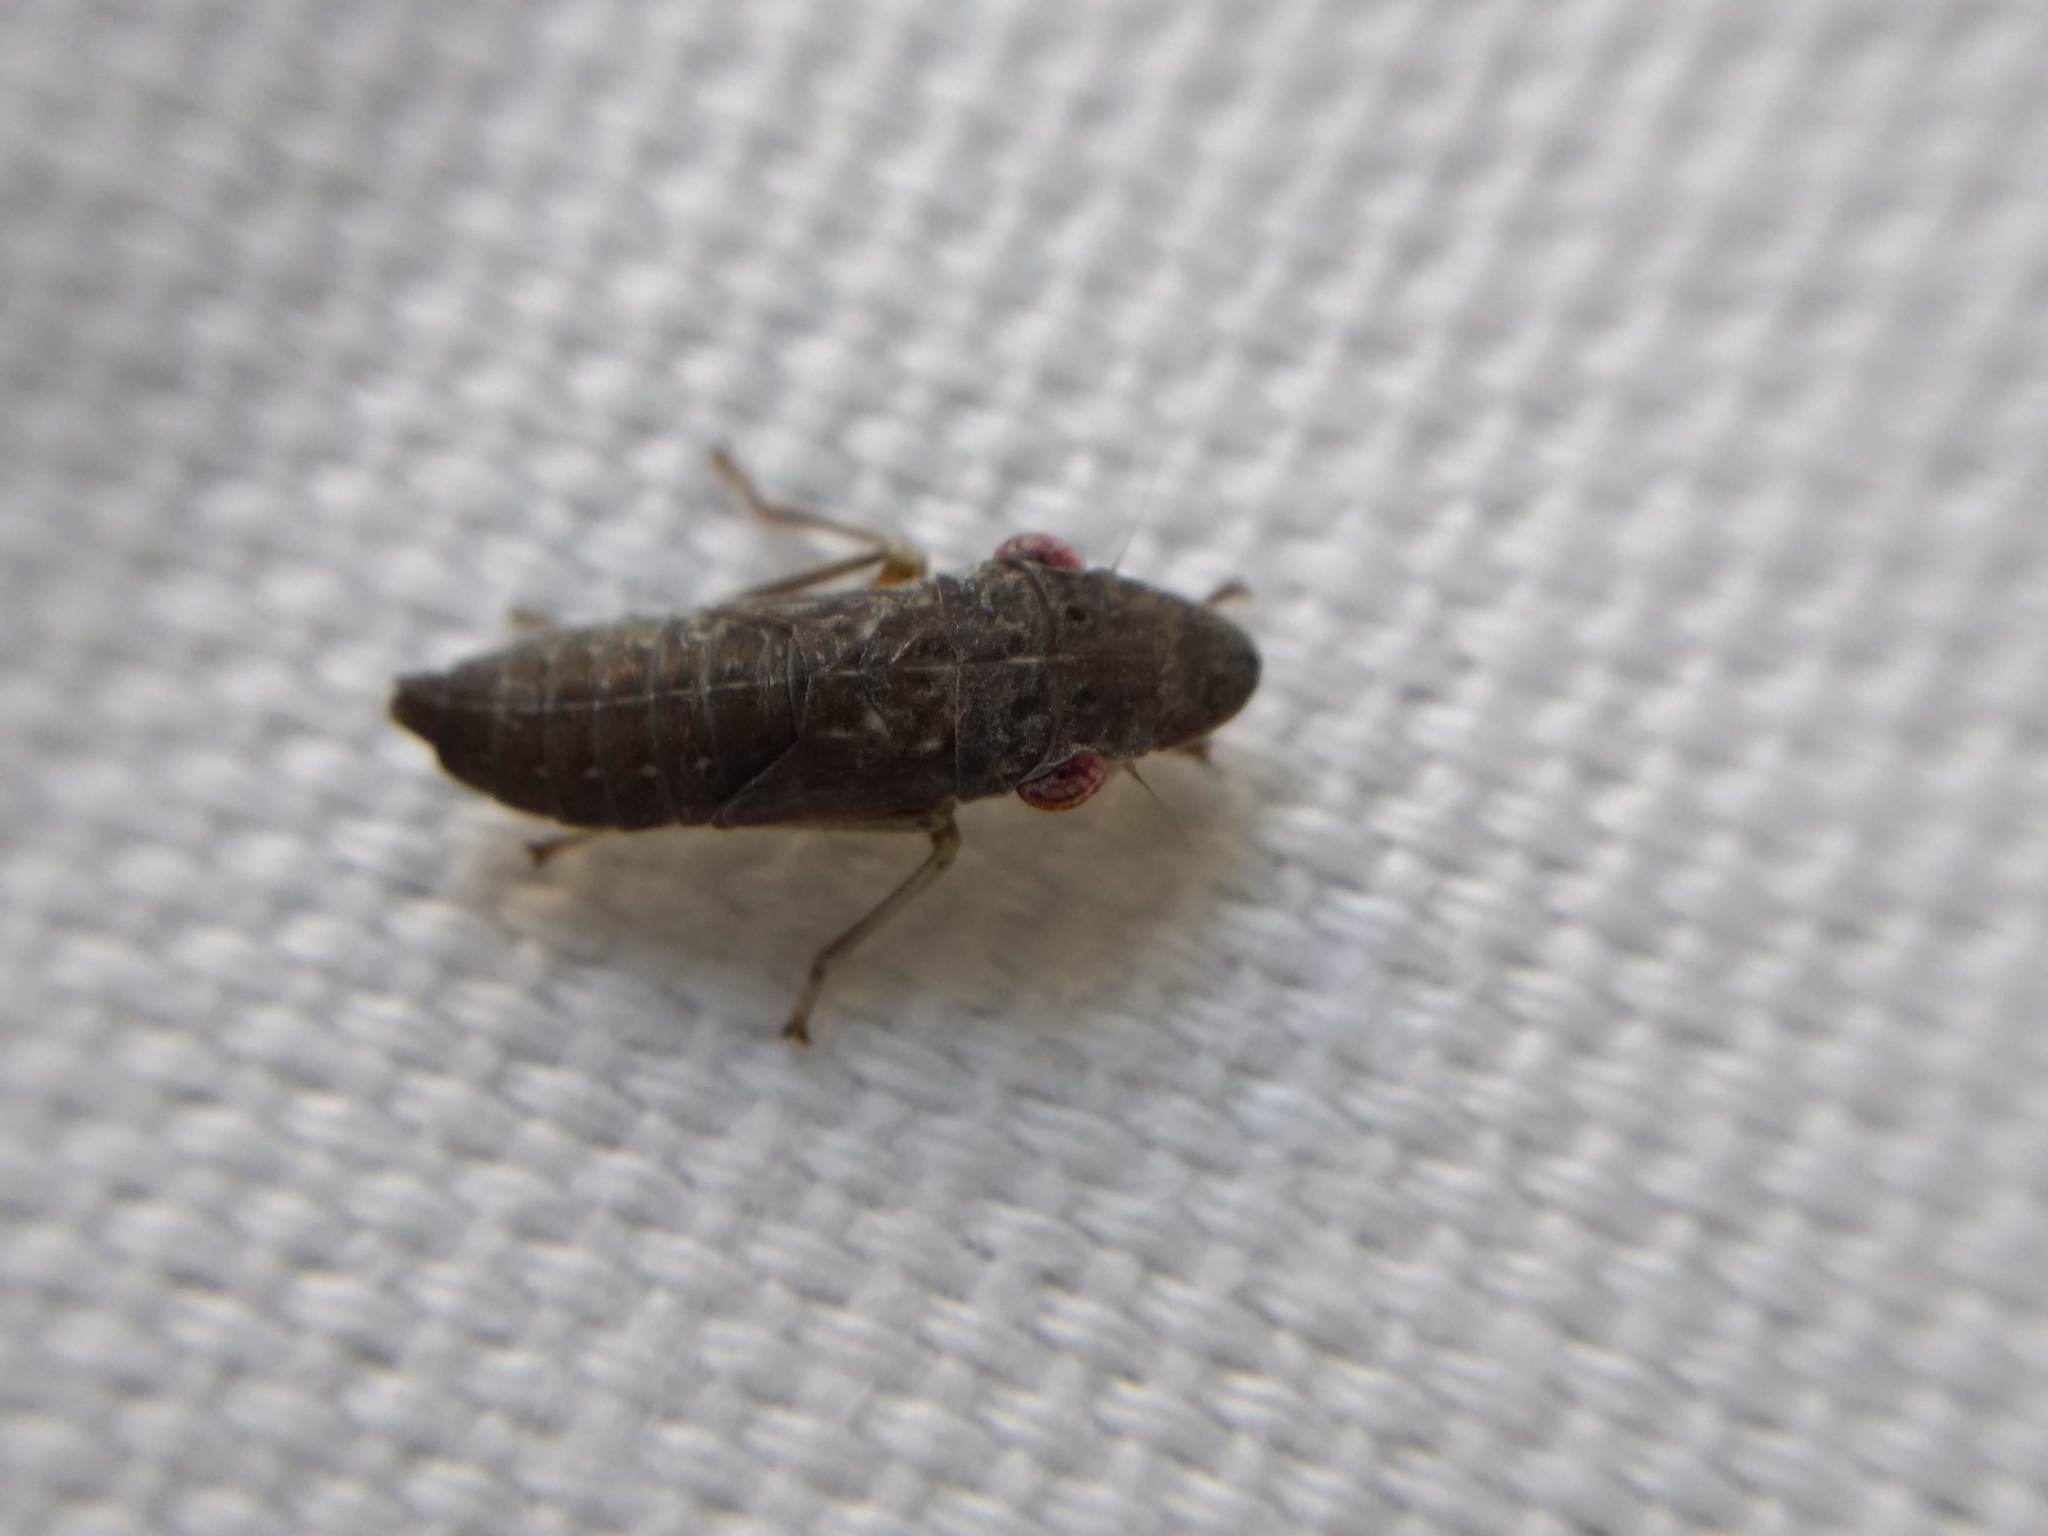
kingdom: Animalia
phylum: Arthropoda
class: Insecta
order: Hemiptera
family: Cicadellidae
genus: Homalodisca
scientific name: Homalodisca
